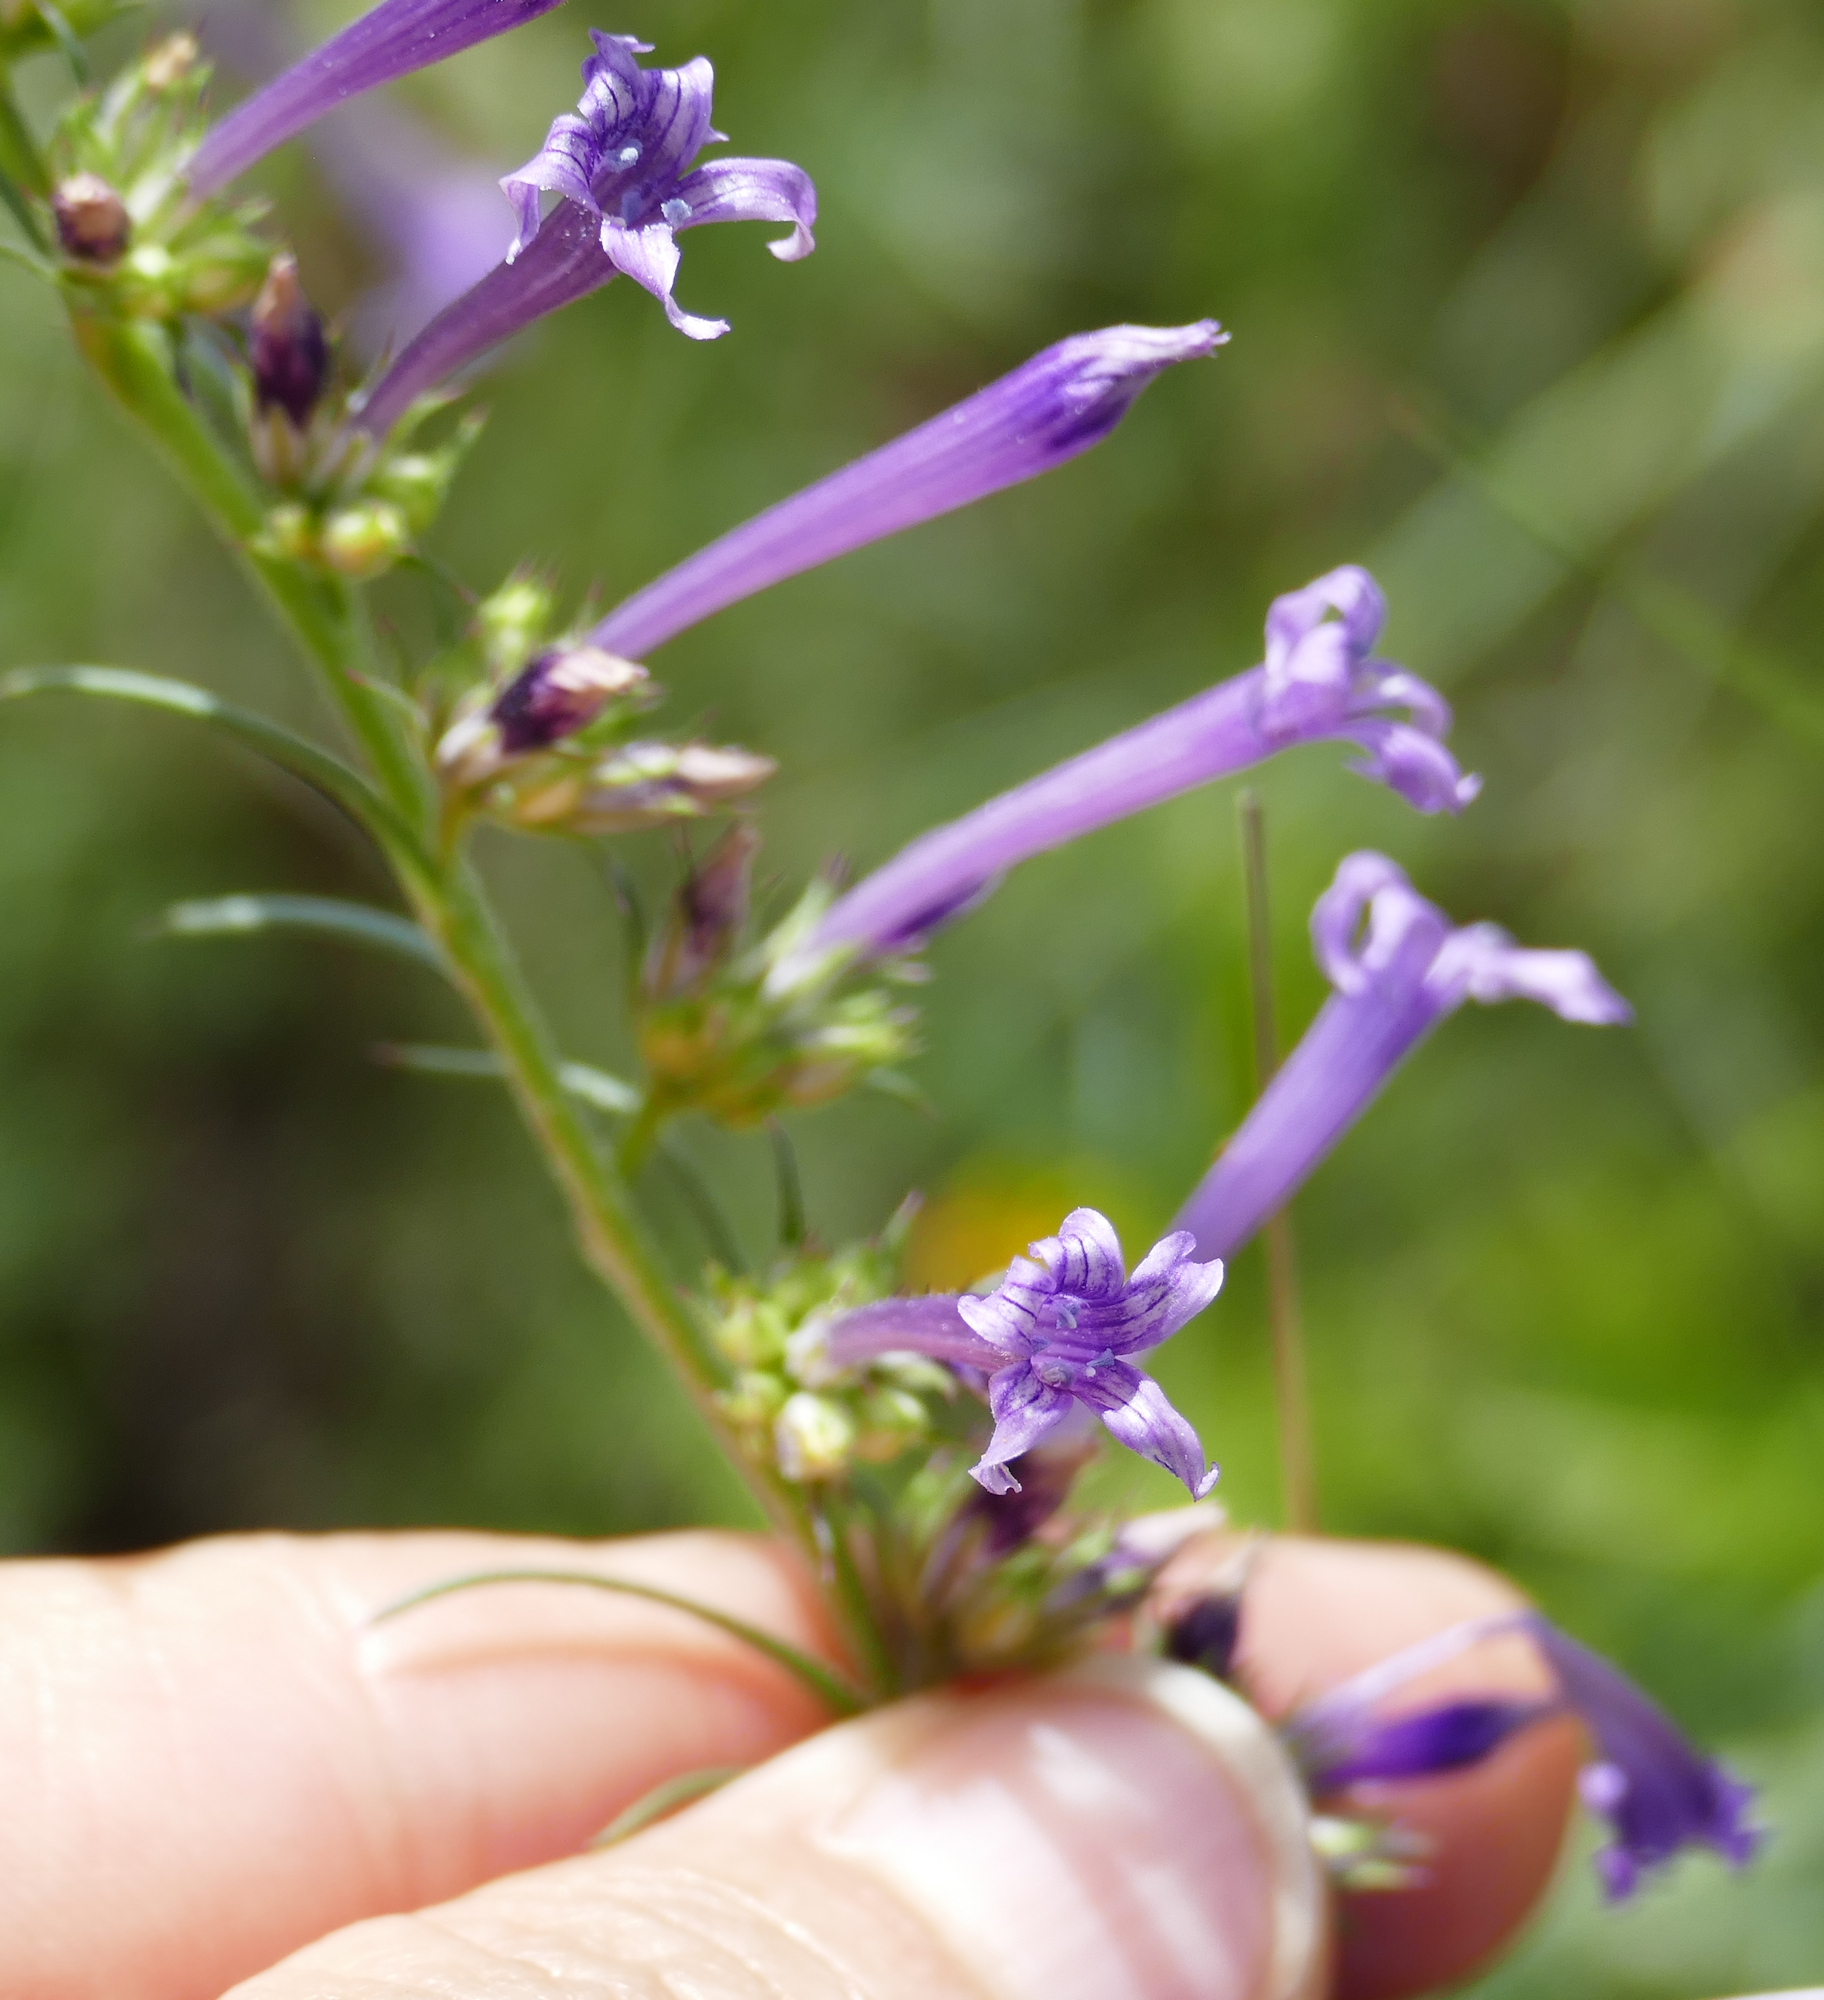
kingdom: Plantae
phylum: Tracheophyta
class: Magnoliopsida
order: Ericales
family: Polemoniaceae
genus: Ipomopsis
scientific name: Ipomopsis macombii
